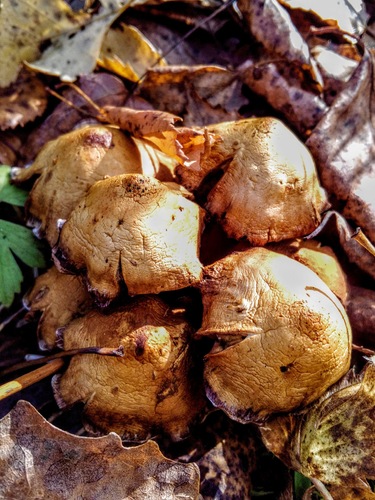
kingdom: Fungi
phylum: Basidiomycota
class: Agaricomycetes
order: Agaricales
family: Strophariaceae
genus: Pholiota
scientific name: Pholiota
